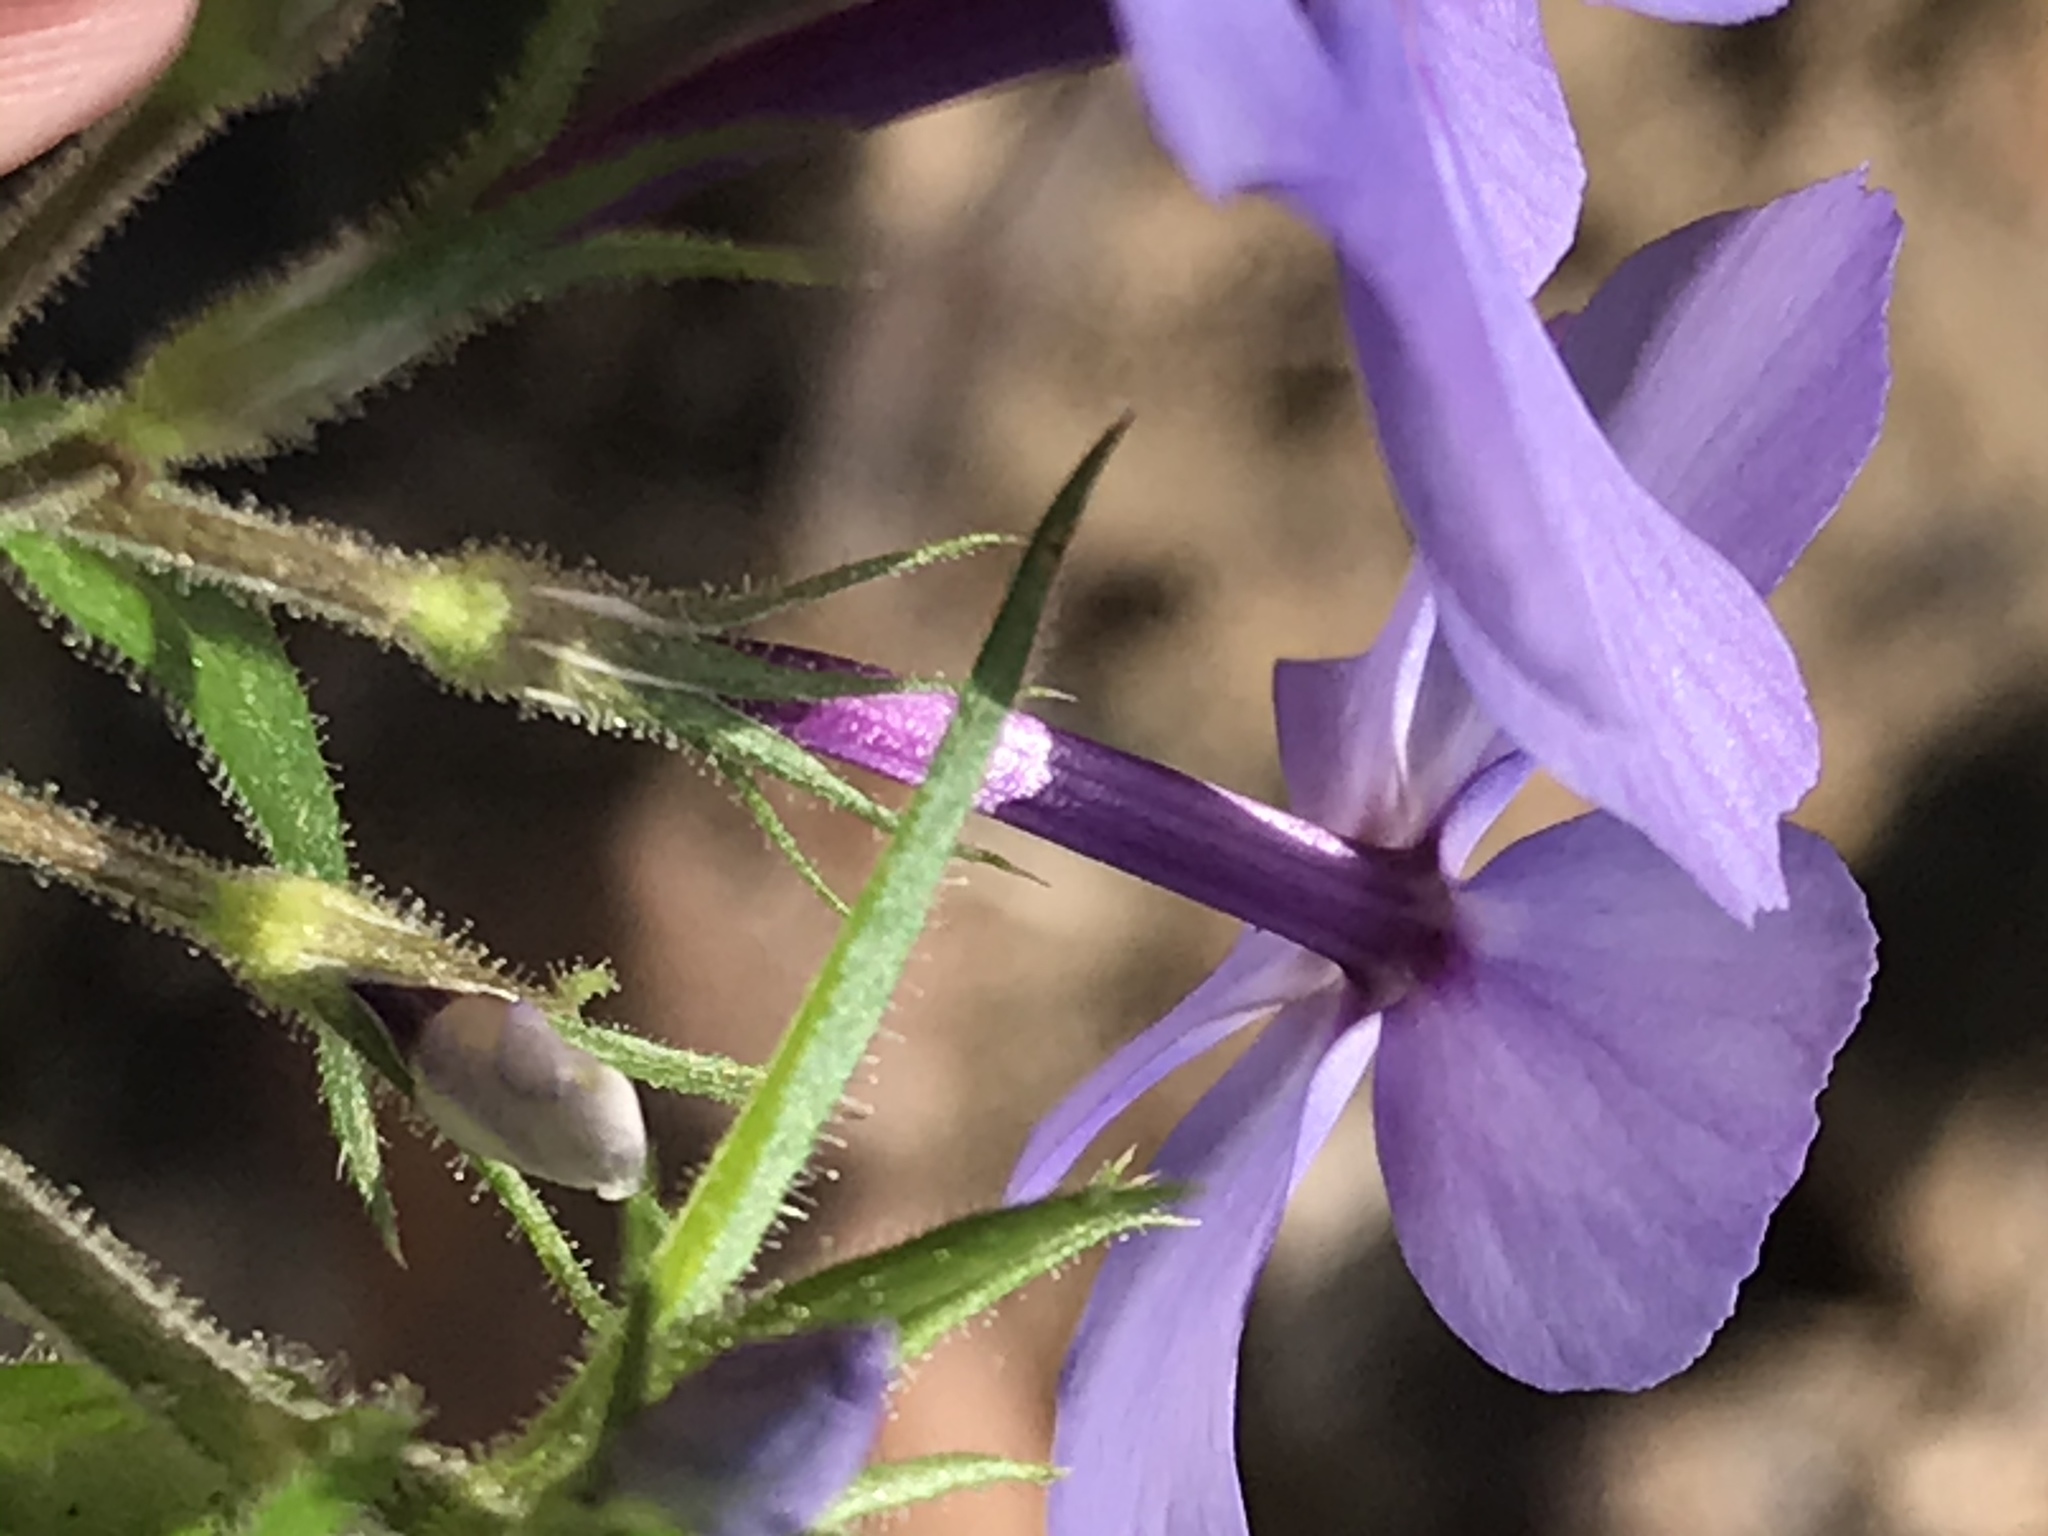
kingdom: Plantae
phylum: Tracheophyta
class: Magnoliopsida
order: Ericales
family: Polemoniaceae
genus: Phlox
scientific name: Phlox divaricata
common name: Blue phlox
